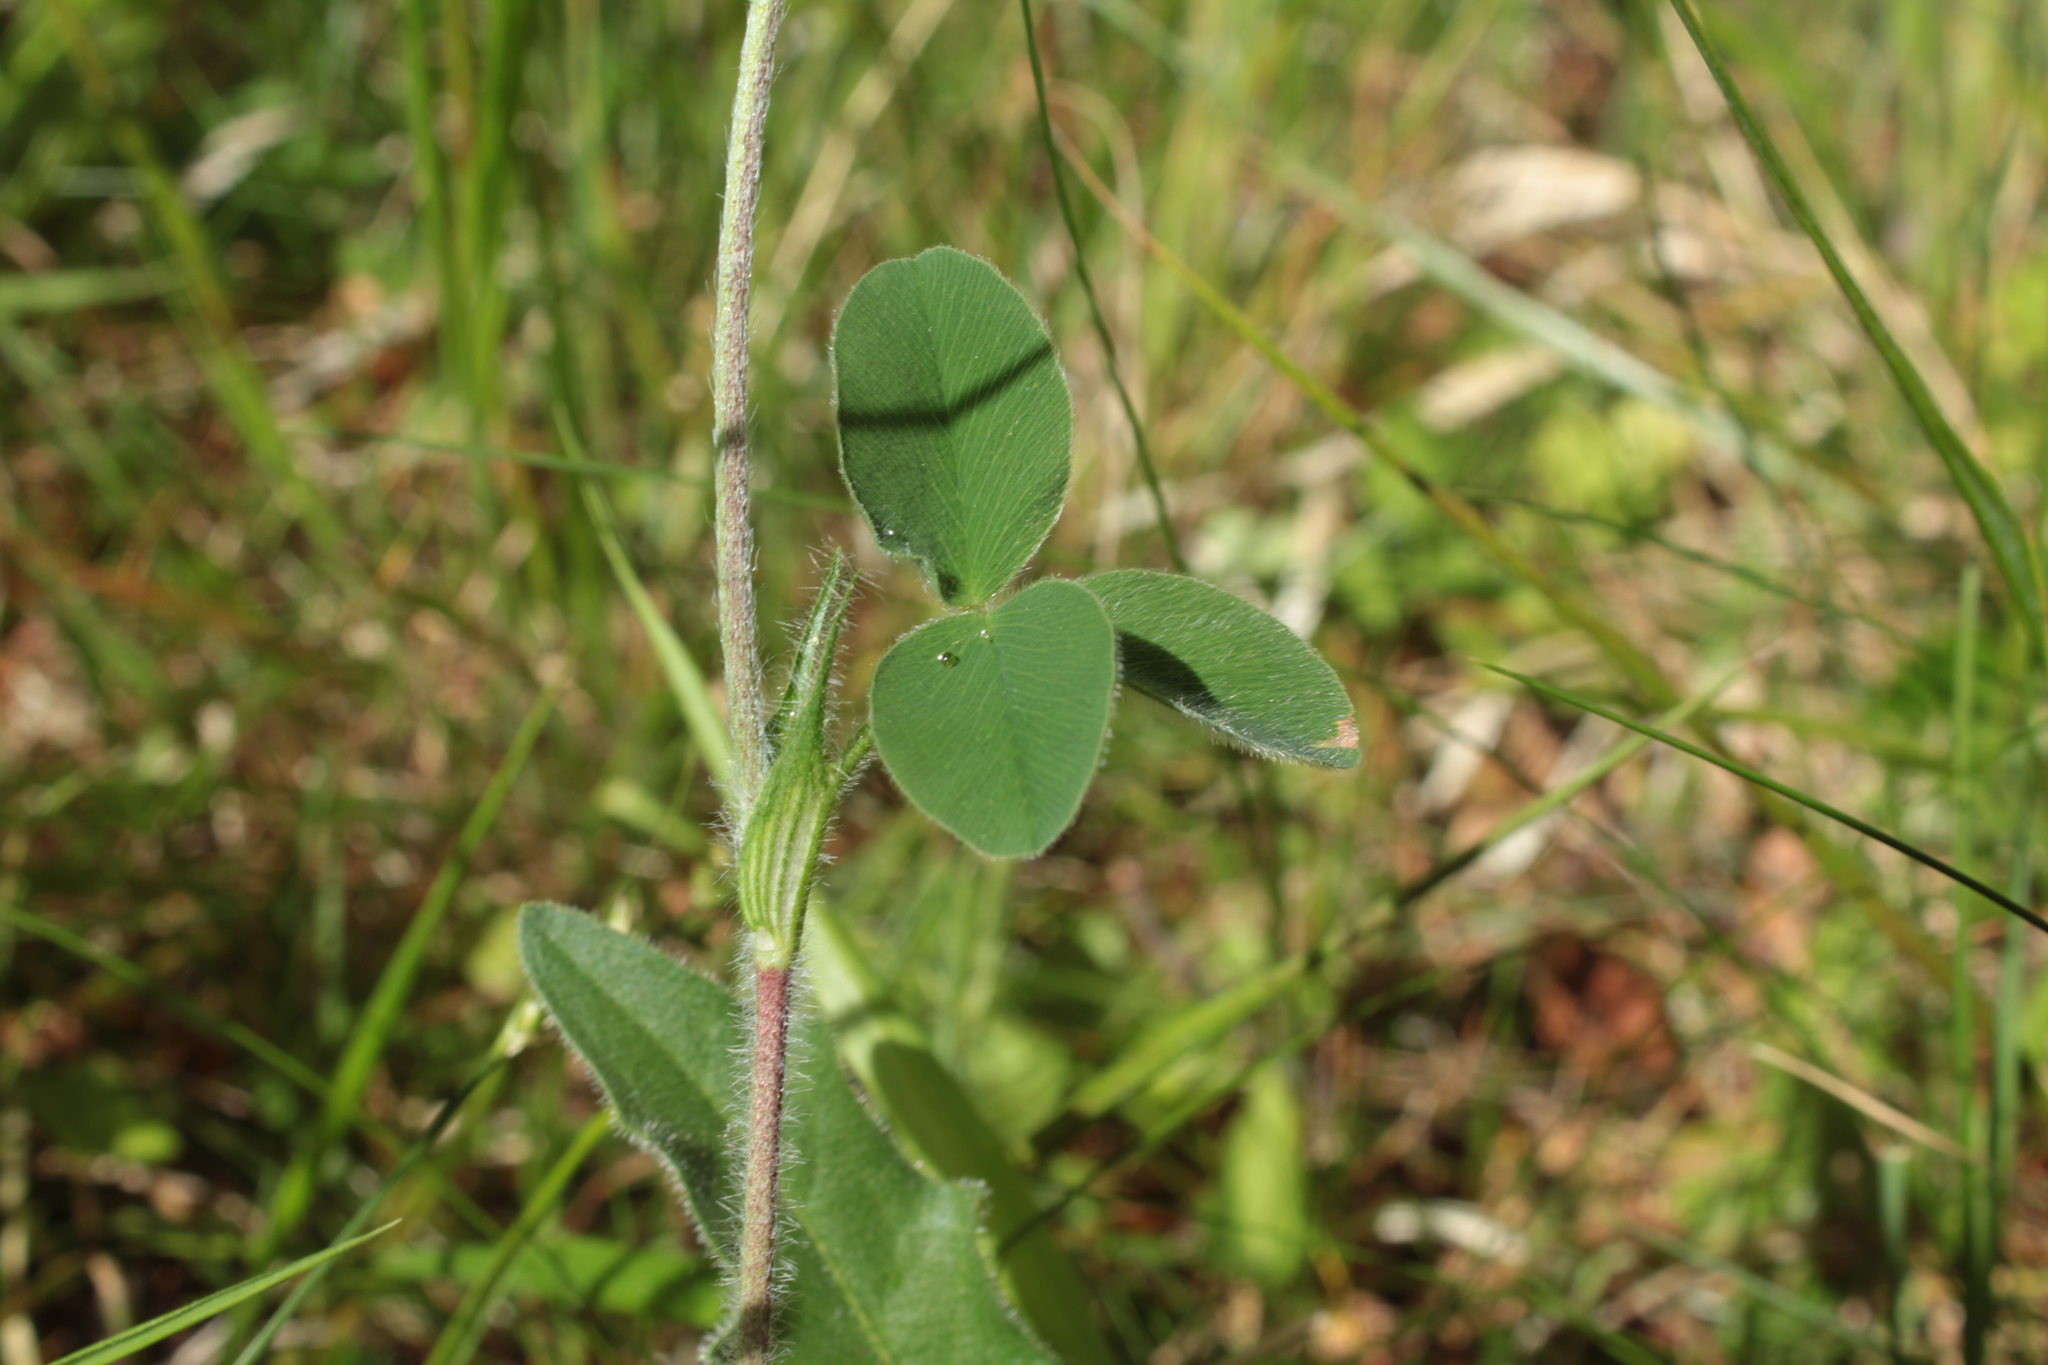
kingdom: Plantae
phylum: Tracheophyta
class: Magnoliopsida
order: Fabales
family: Fabaceae
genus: Trifolium
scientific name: Trifolium ochroleucon
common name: Sulphur clover
